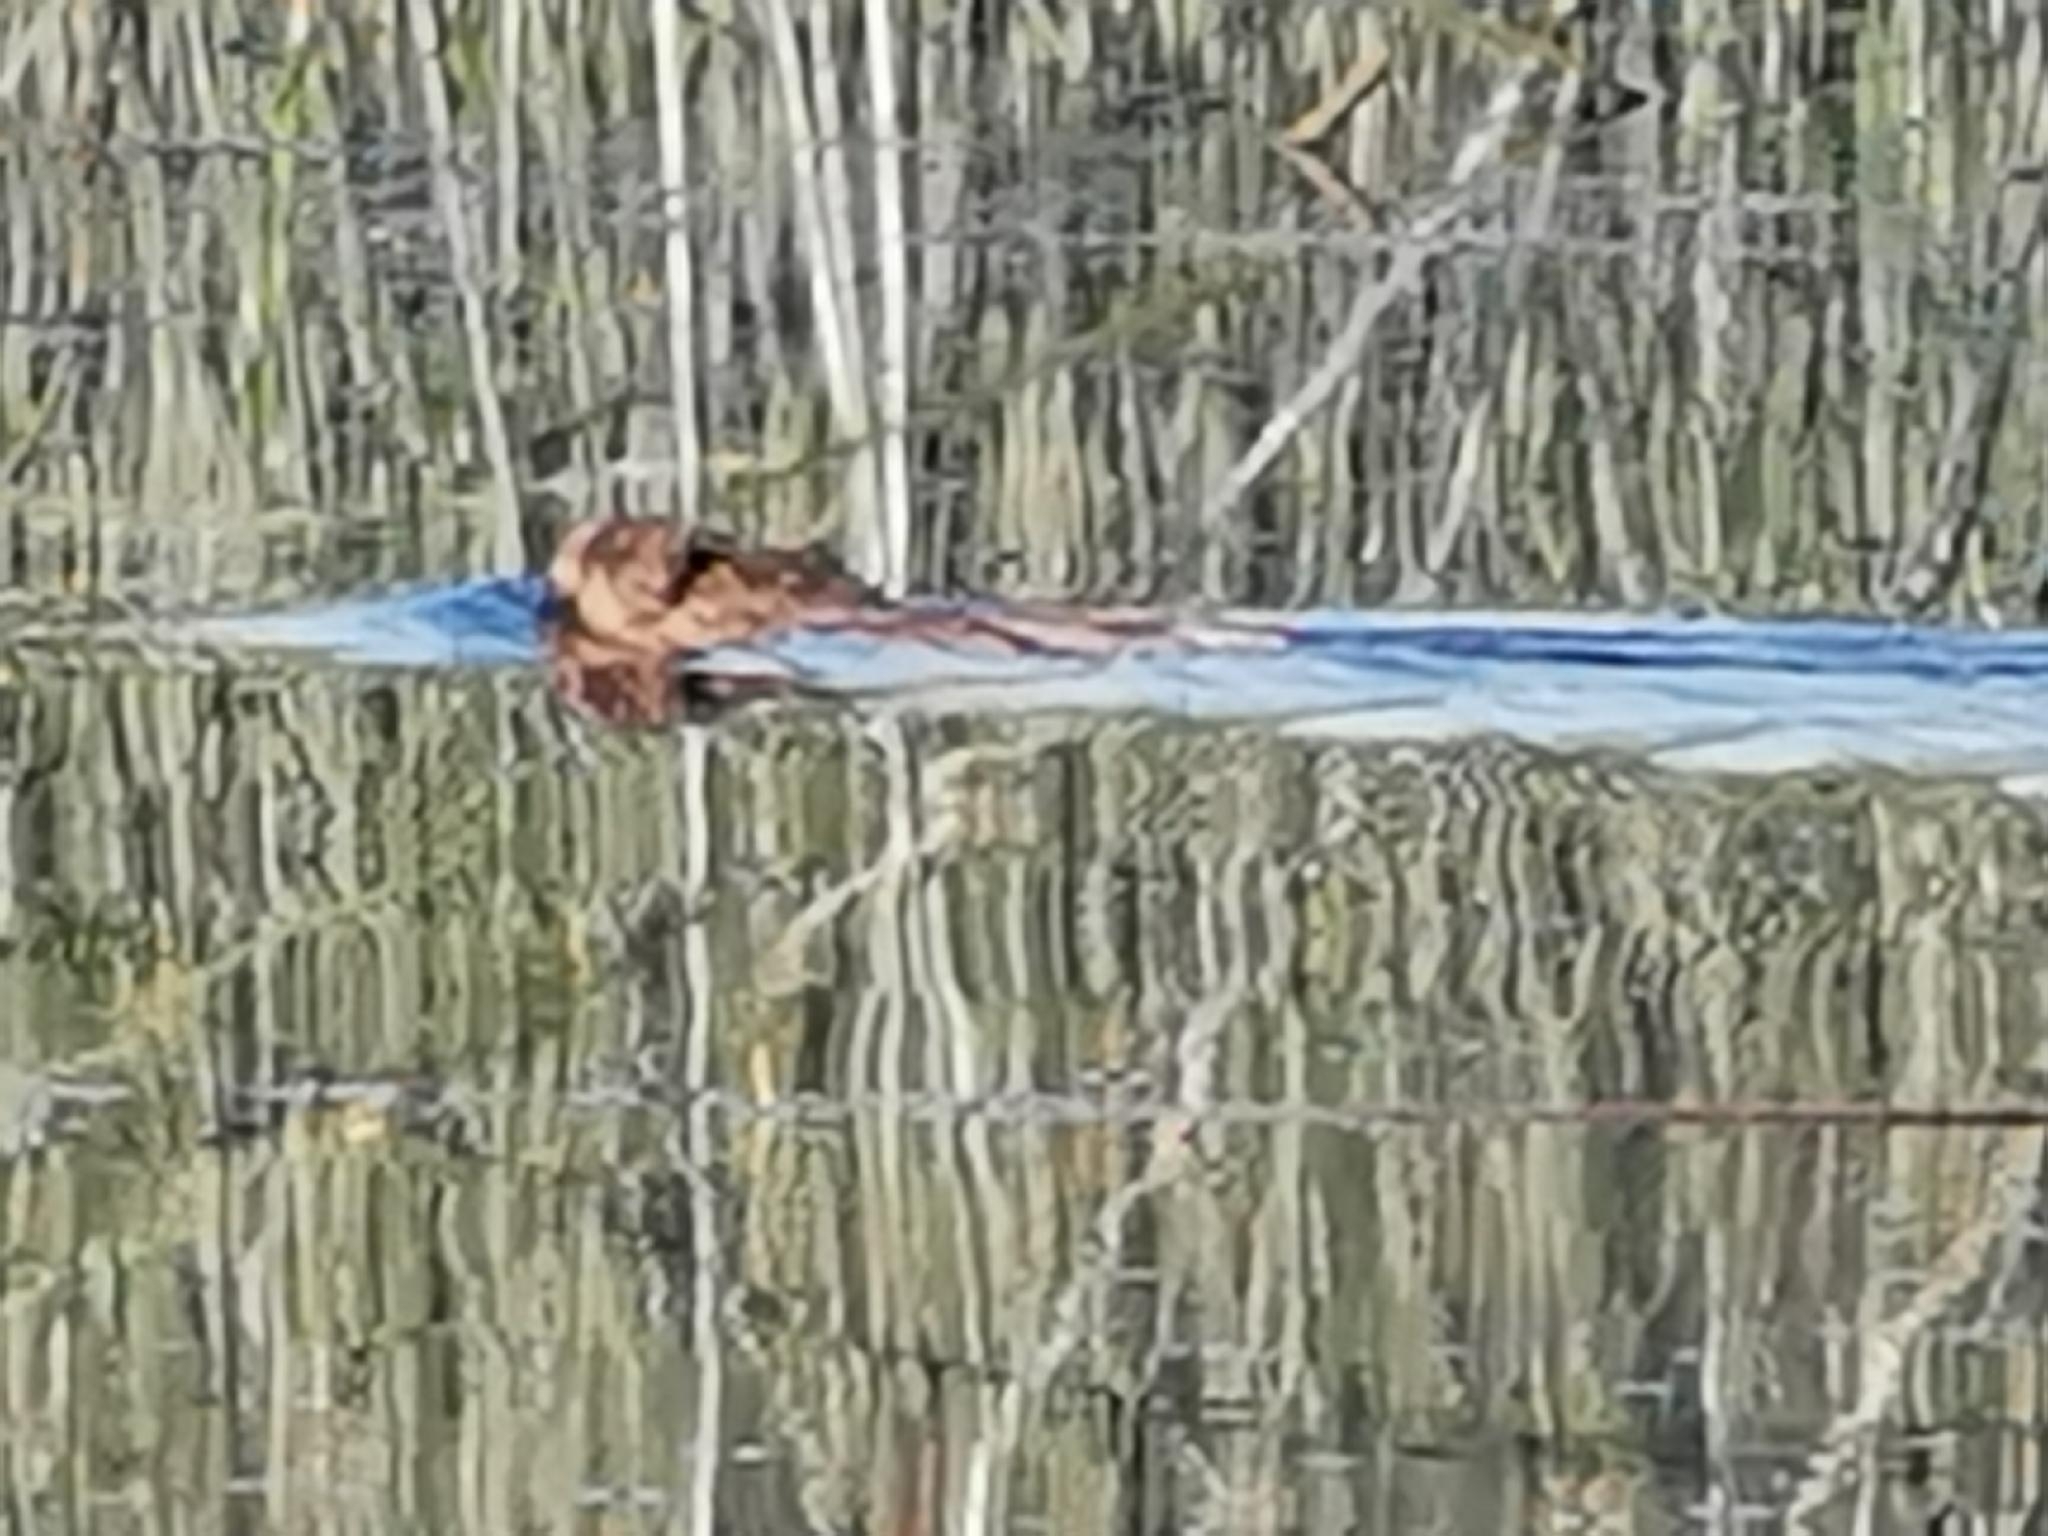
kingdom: Animalia
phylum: Chordata
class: Mammalia
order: Rodentia
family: Castoridae
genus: Castor
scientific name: Castor canadensis
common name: American beaver
